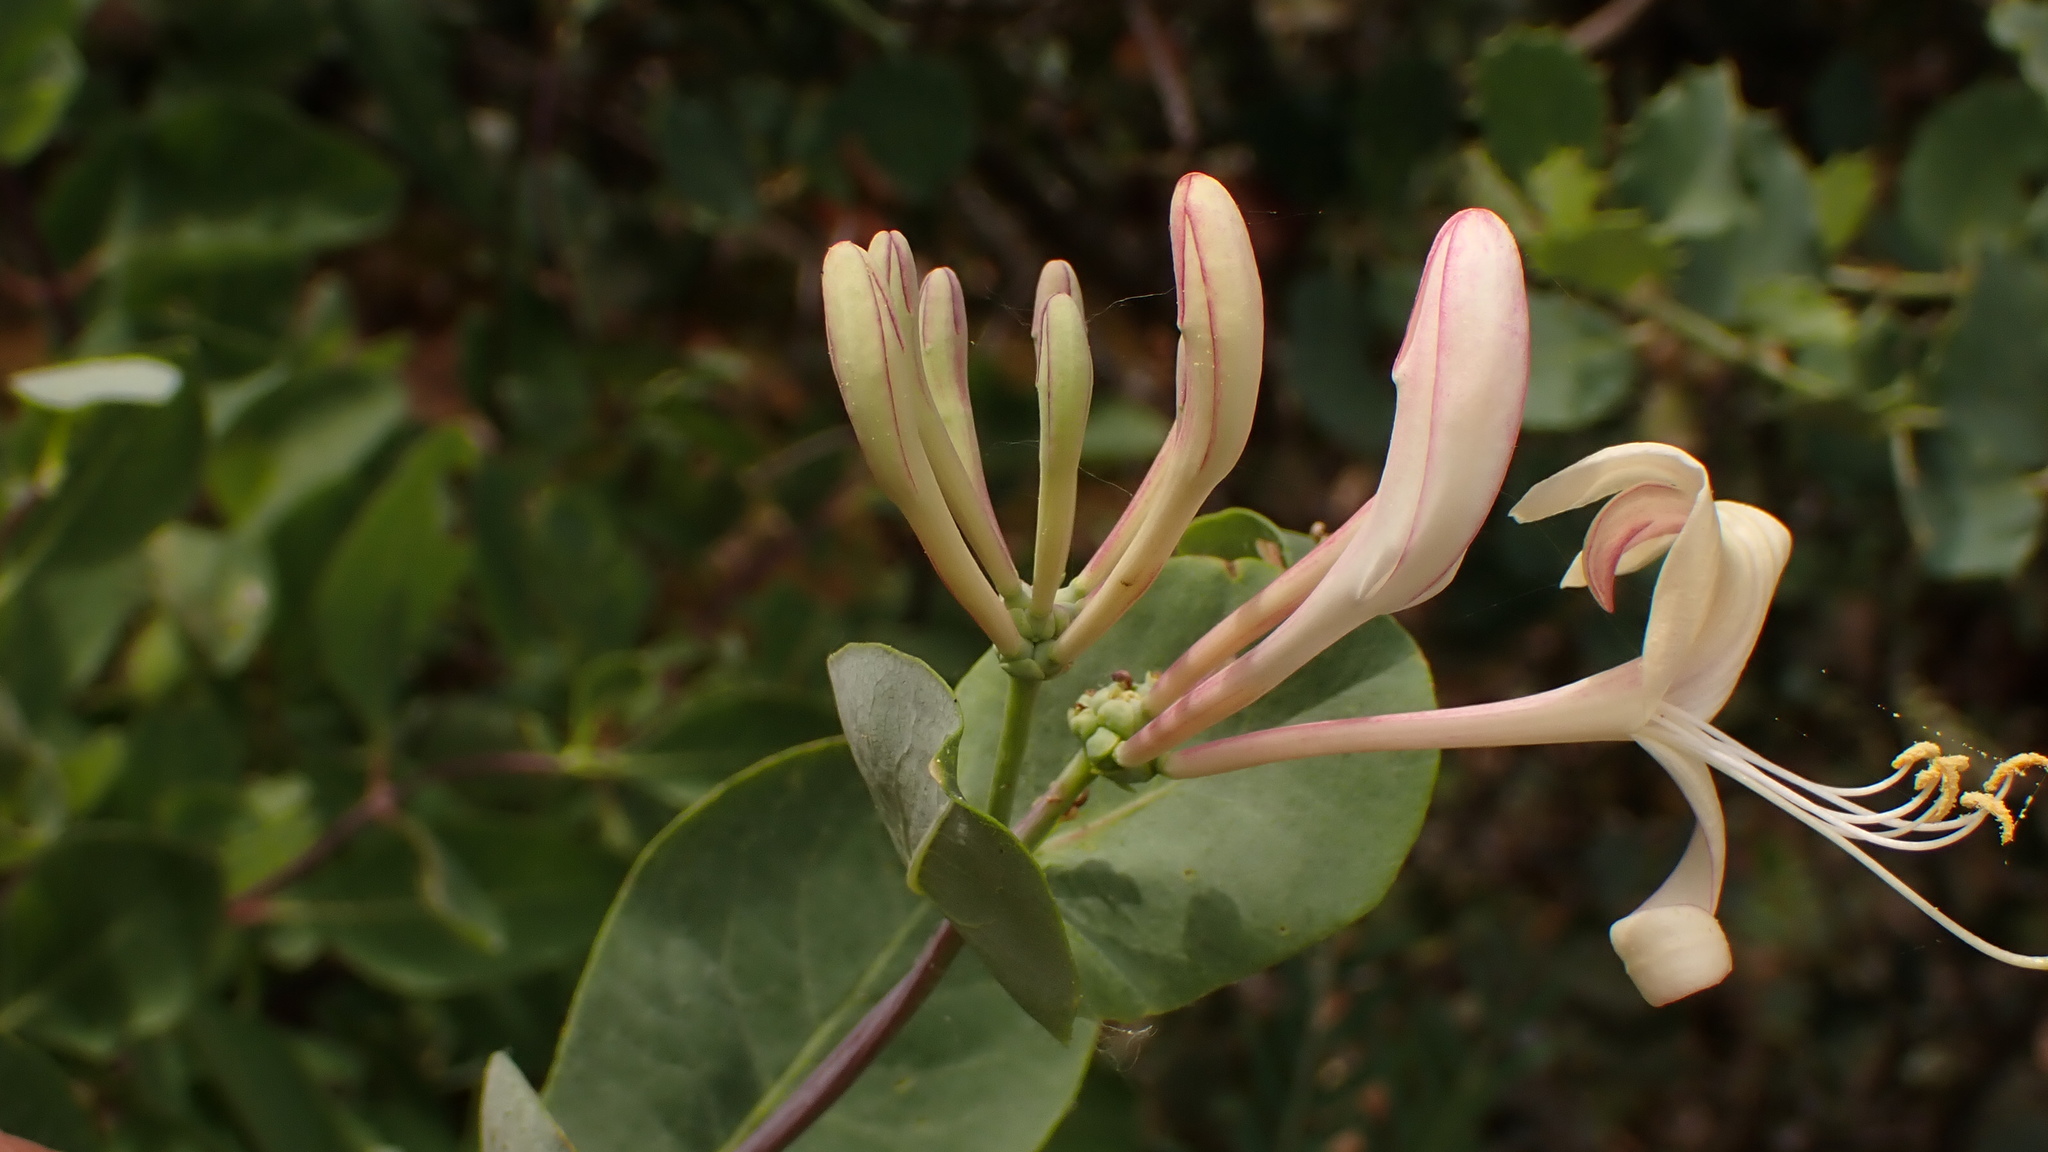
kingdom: Plantae
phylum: Tracheophyta
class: Magnoliopsida
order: Dipsacales
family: Caprifoliaceae
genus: Lonicera
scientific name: Lonicera etrusca
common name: Etruscan honeysuckle
